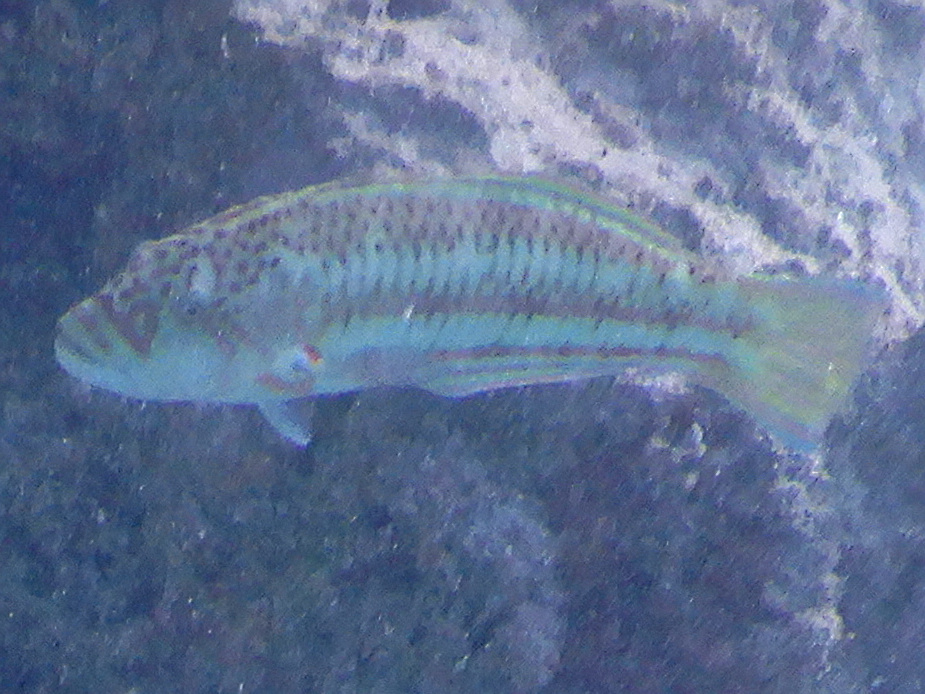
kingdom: Animalia
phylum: Chordata
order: Perciformes
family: Labridae
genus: Thalassoma
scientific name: Thalassoma purpureum
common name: Parrotfish
